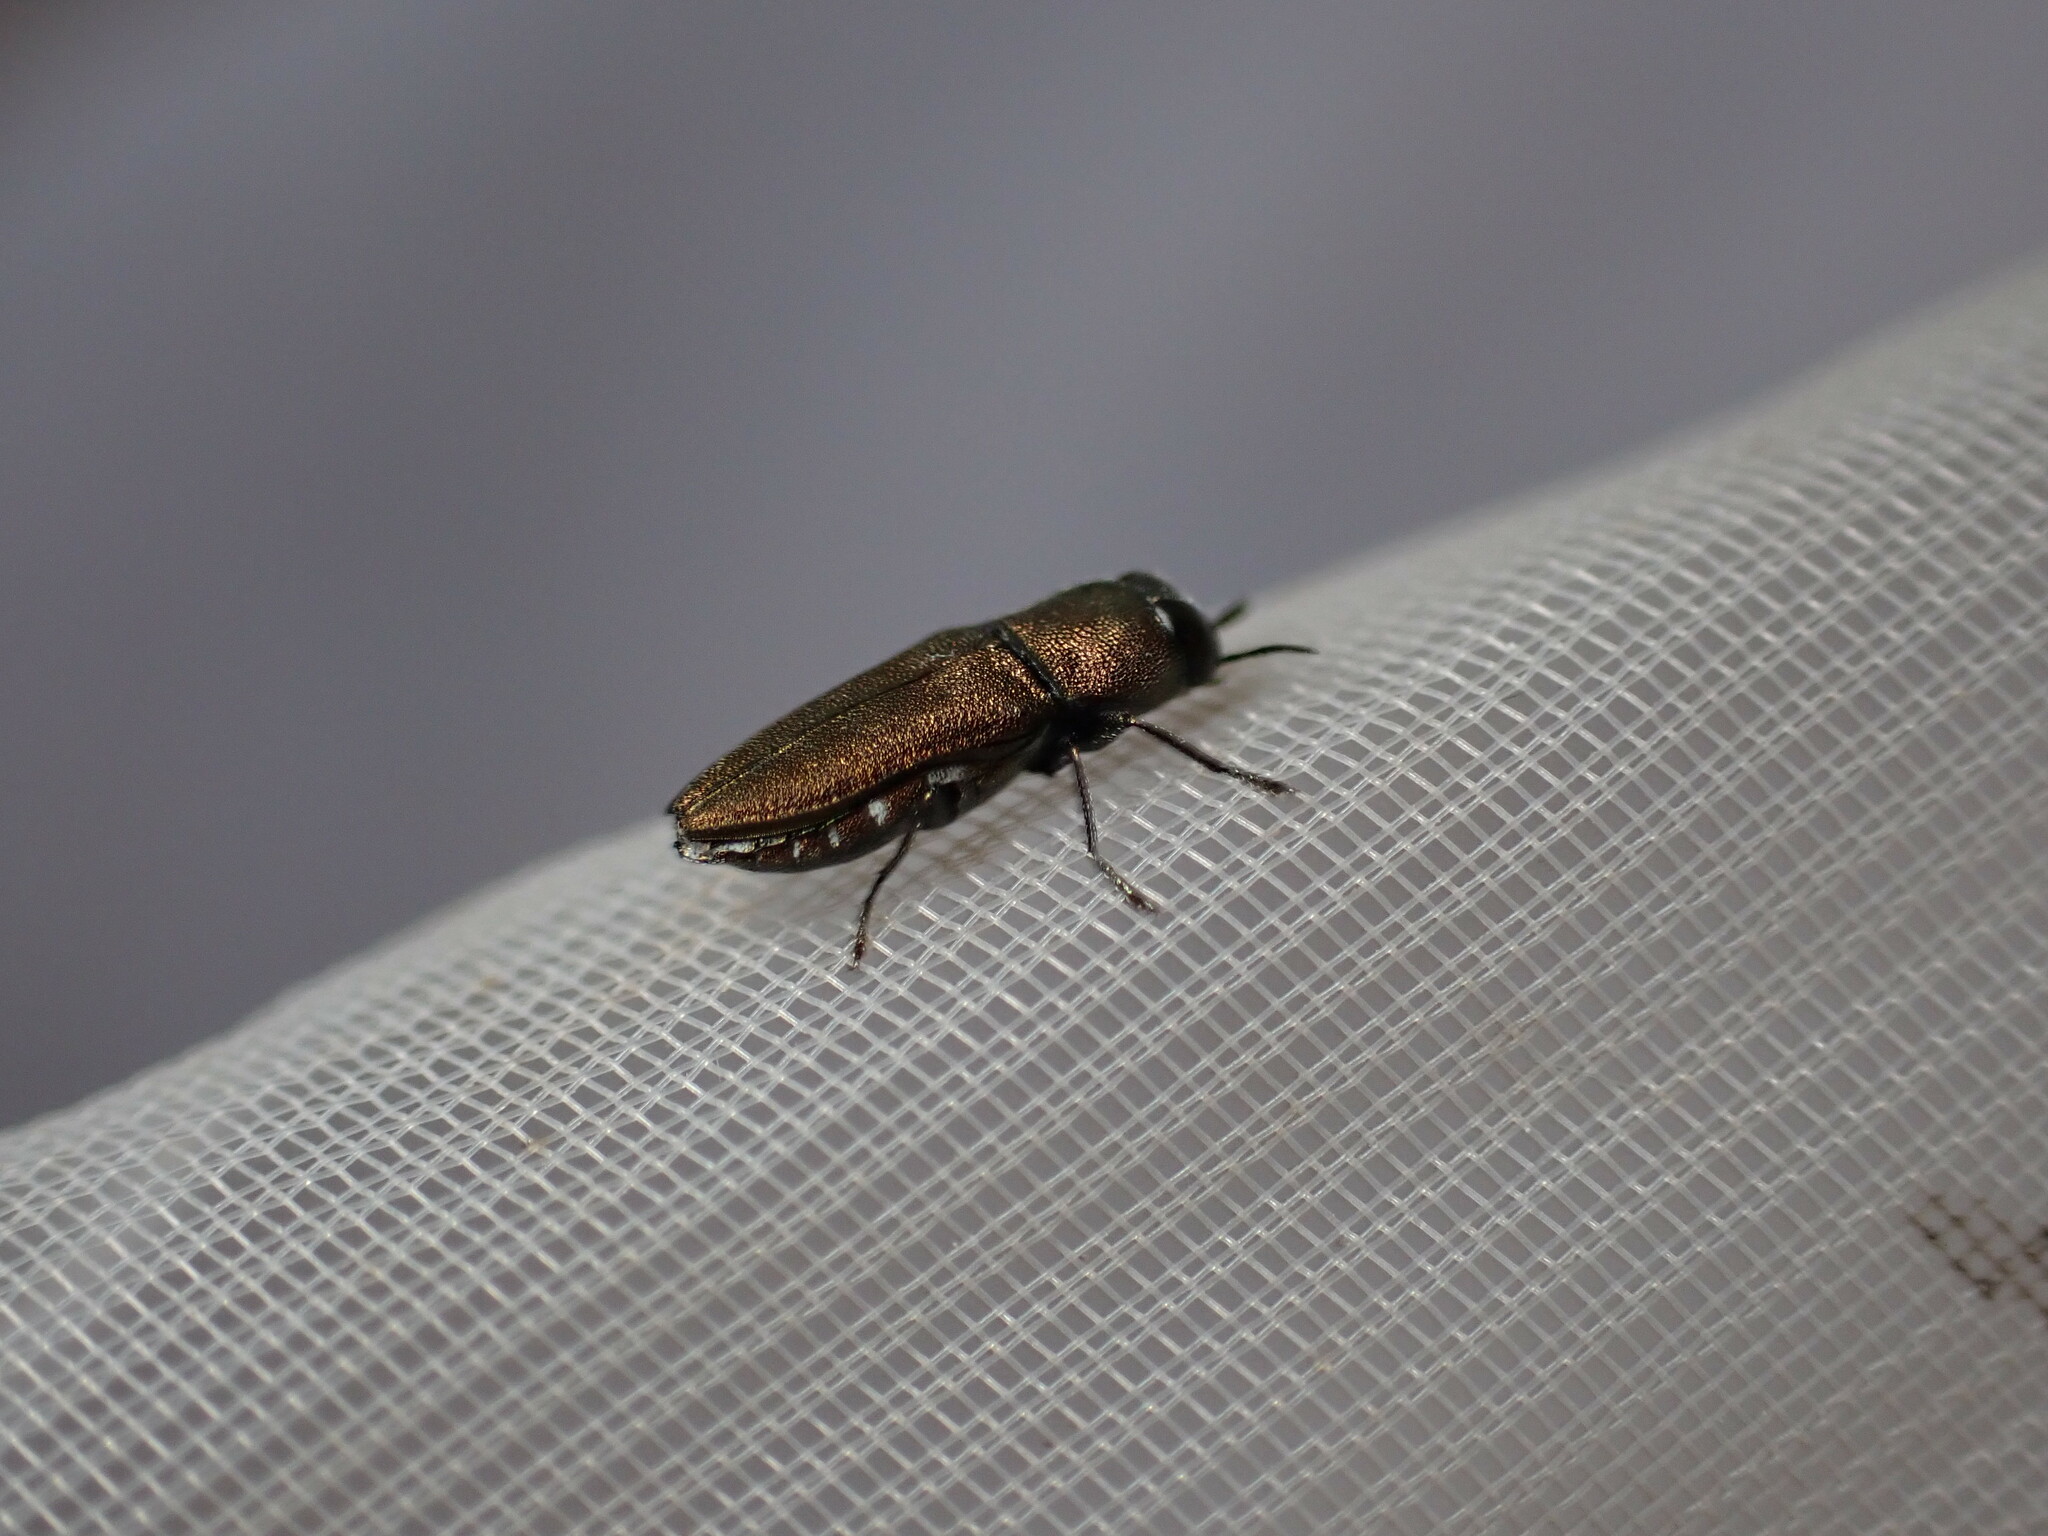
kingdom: Animalia
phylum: Arthropoda
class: Insecta
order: Coleoptera
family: Buprestidae
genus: Anthaxia
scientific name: Anthaxia umbellatarum
